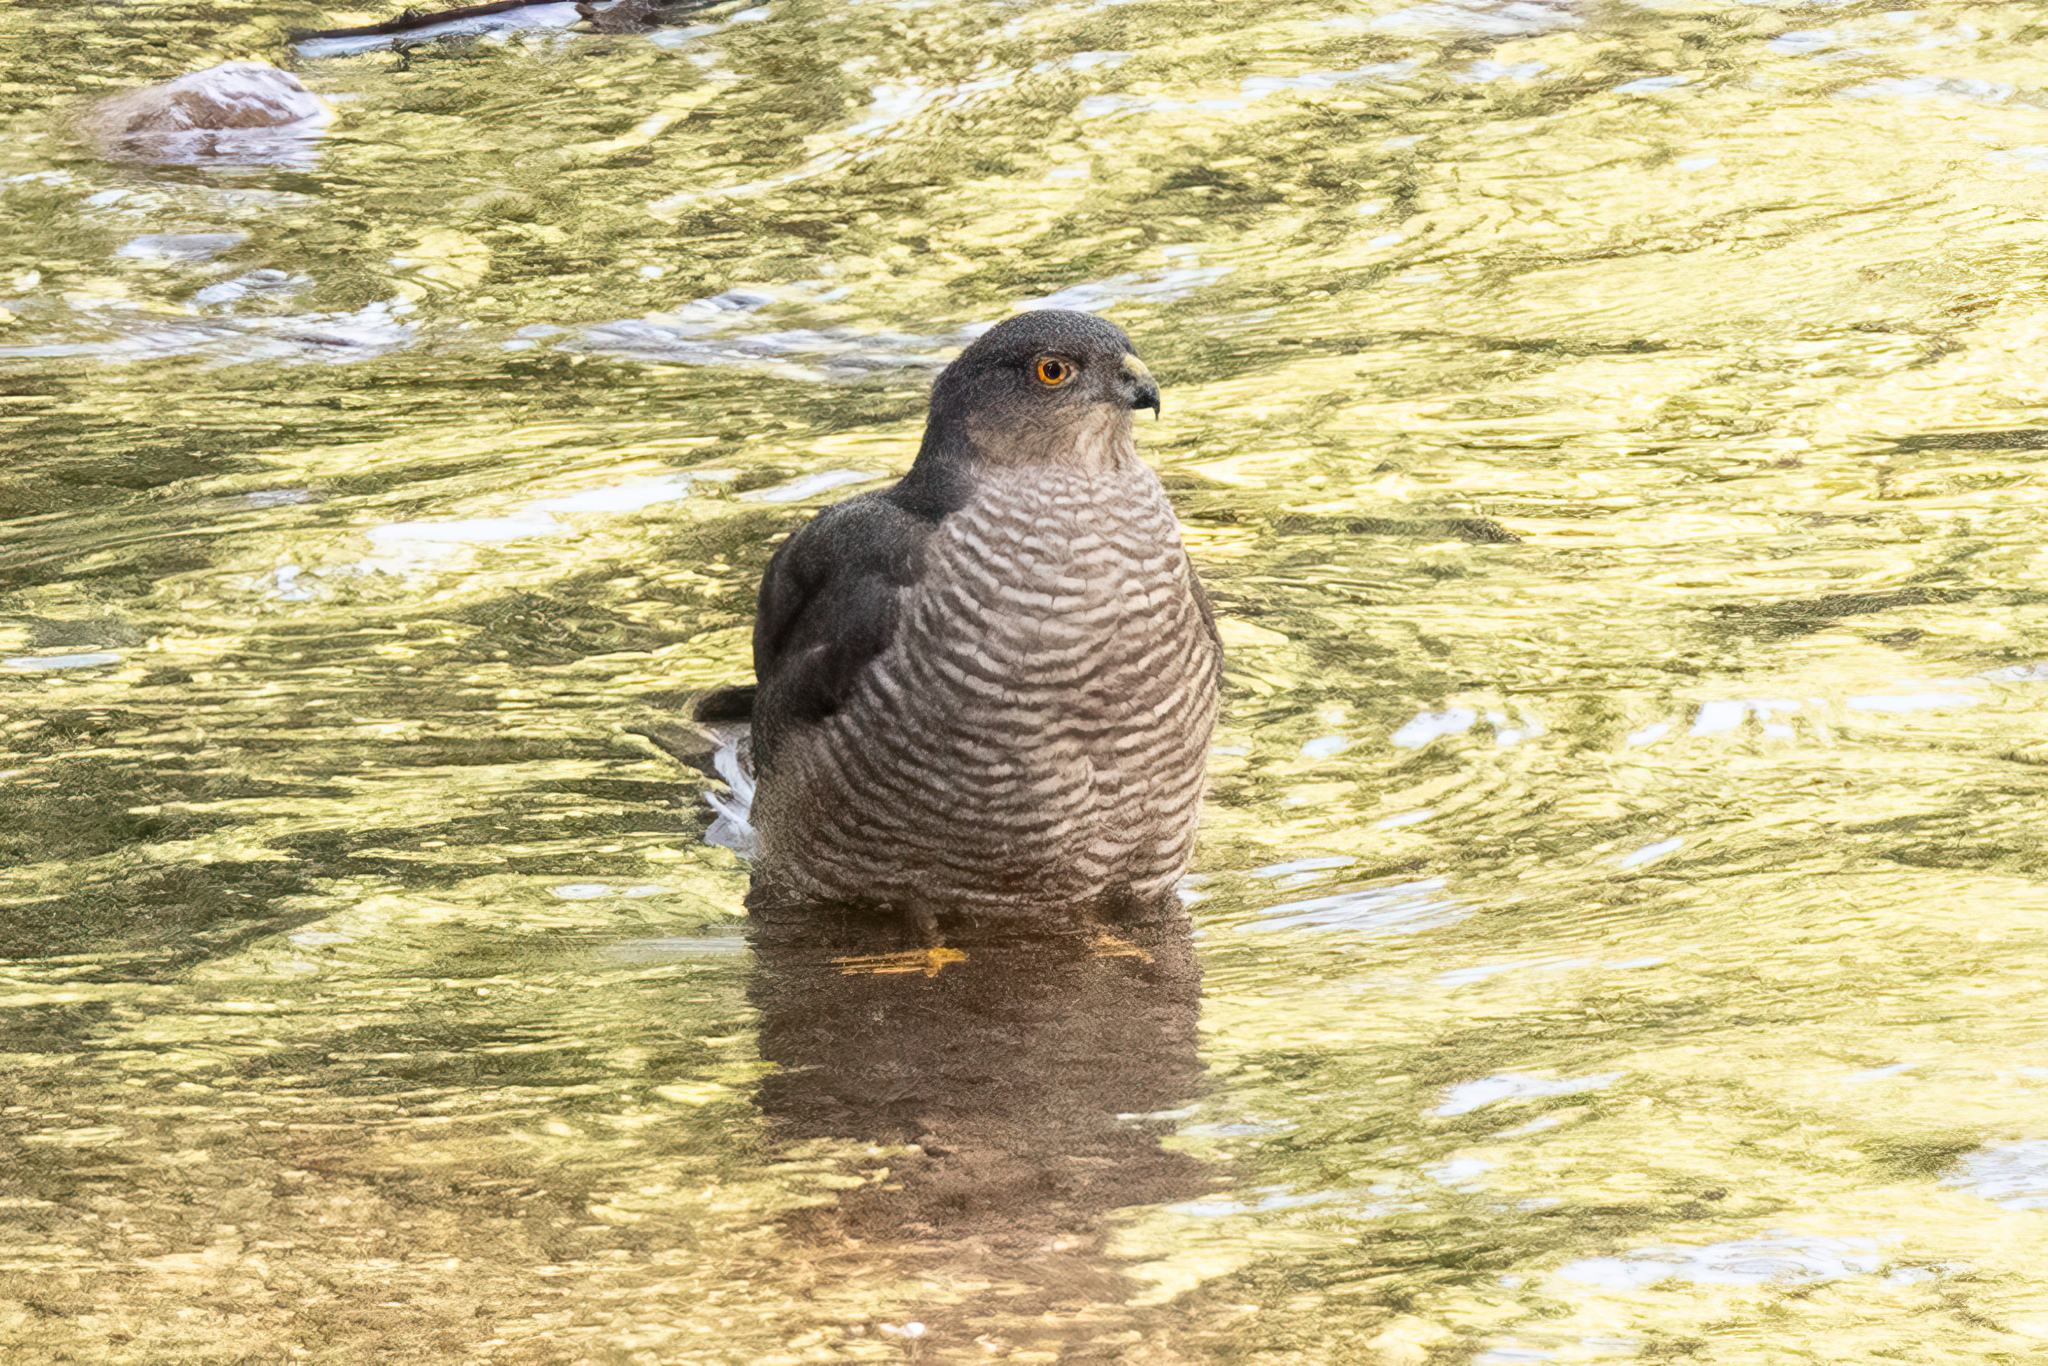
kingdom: Animalia
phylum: Chordata
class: Aves
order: Accipitriformes
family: Accipitridae
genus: Accipiter
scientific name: Accipiter nisus
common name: Eurasian sparrowhawk
